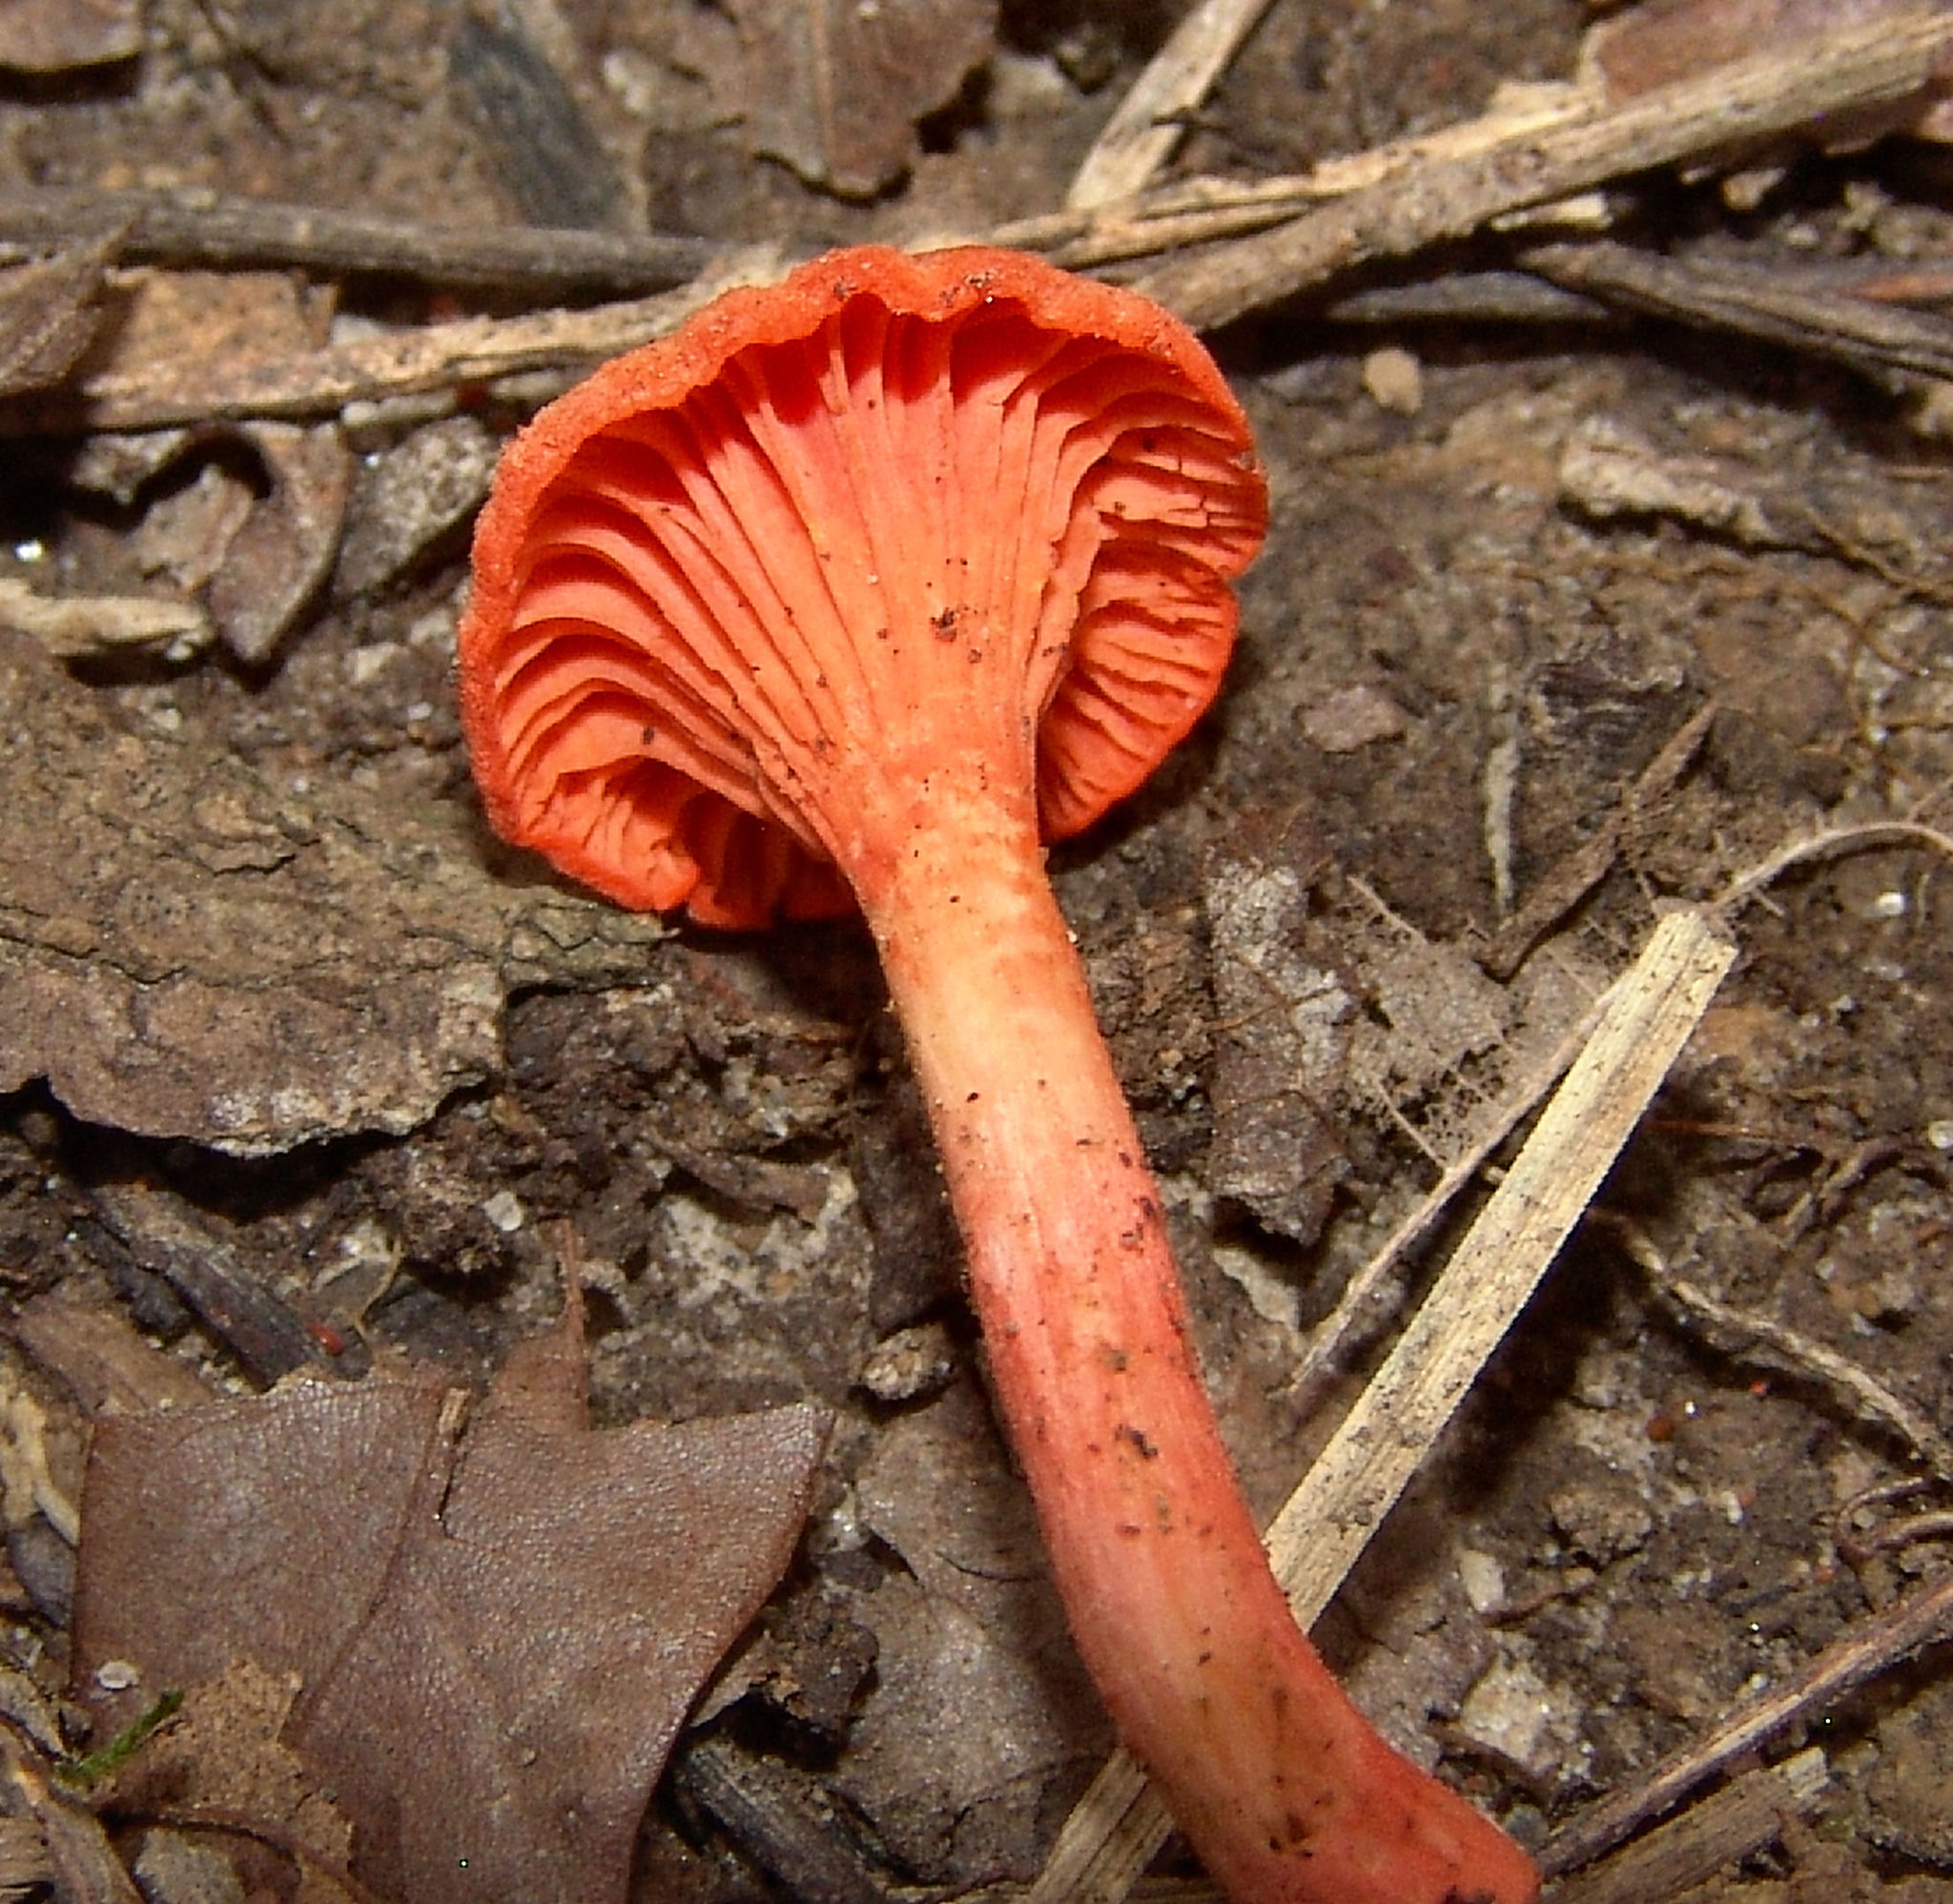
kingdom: Fungi
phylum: Basidiomycota
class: Agaricomycetes
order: Cantharellales
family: Hydnaceae
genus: Cantharellus
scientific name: Cantharellus cinnabarinus
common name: Cinnabar chanterelle
